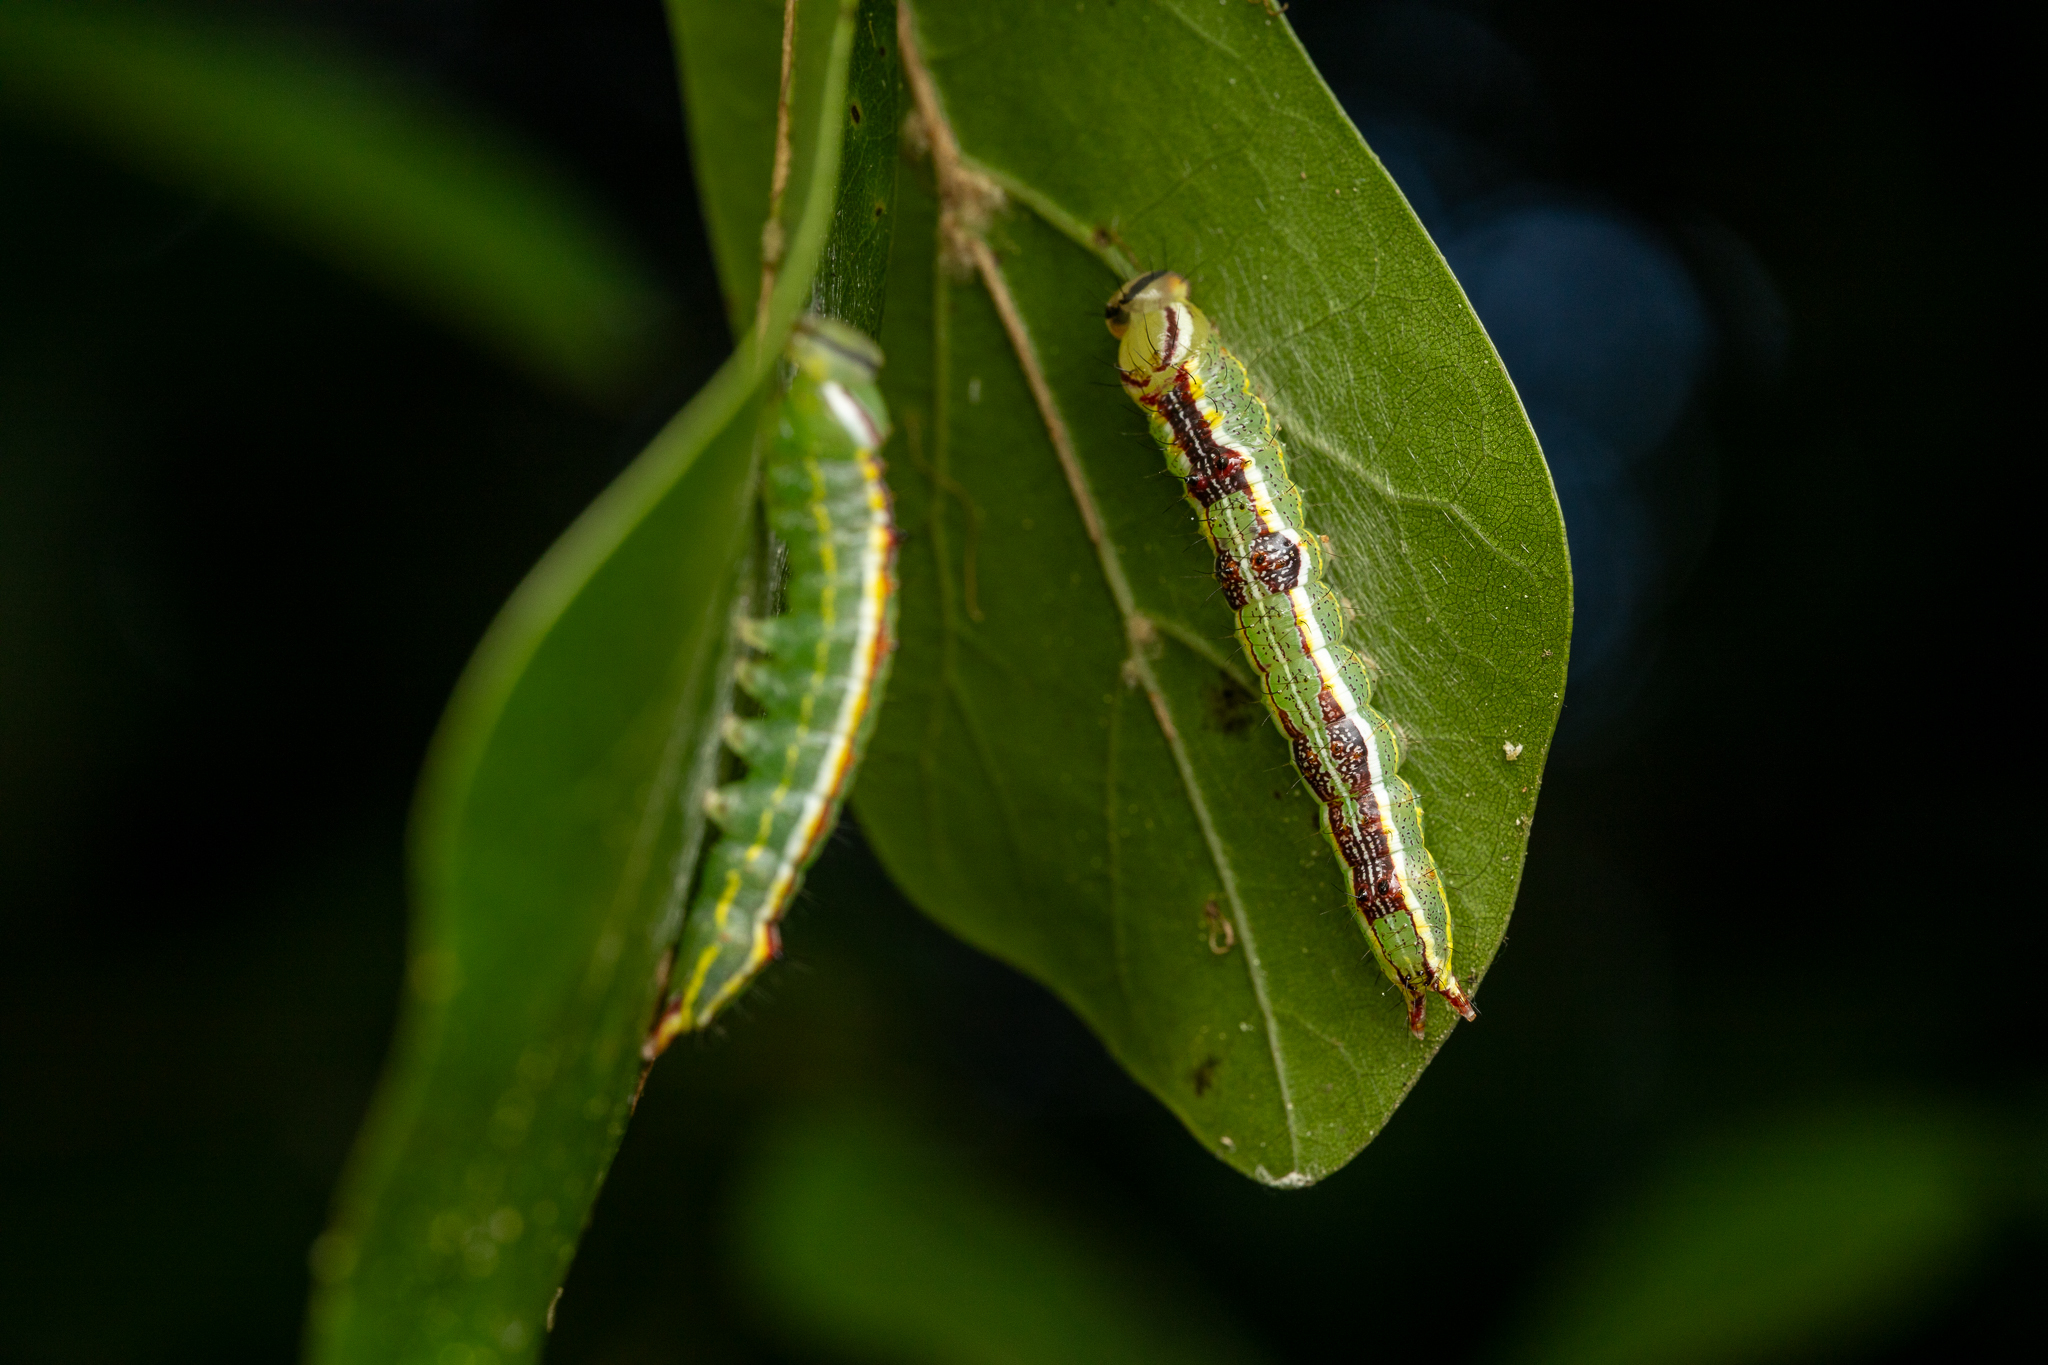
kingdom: Animalia
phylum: Arthropoda
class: Insecta
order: Lepidoptera
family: Notodontidae
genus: Lochmaeus
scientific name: Lochmaeus manteo
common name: Variable oakleaf caterpillar moth
